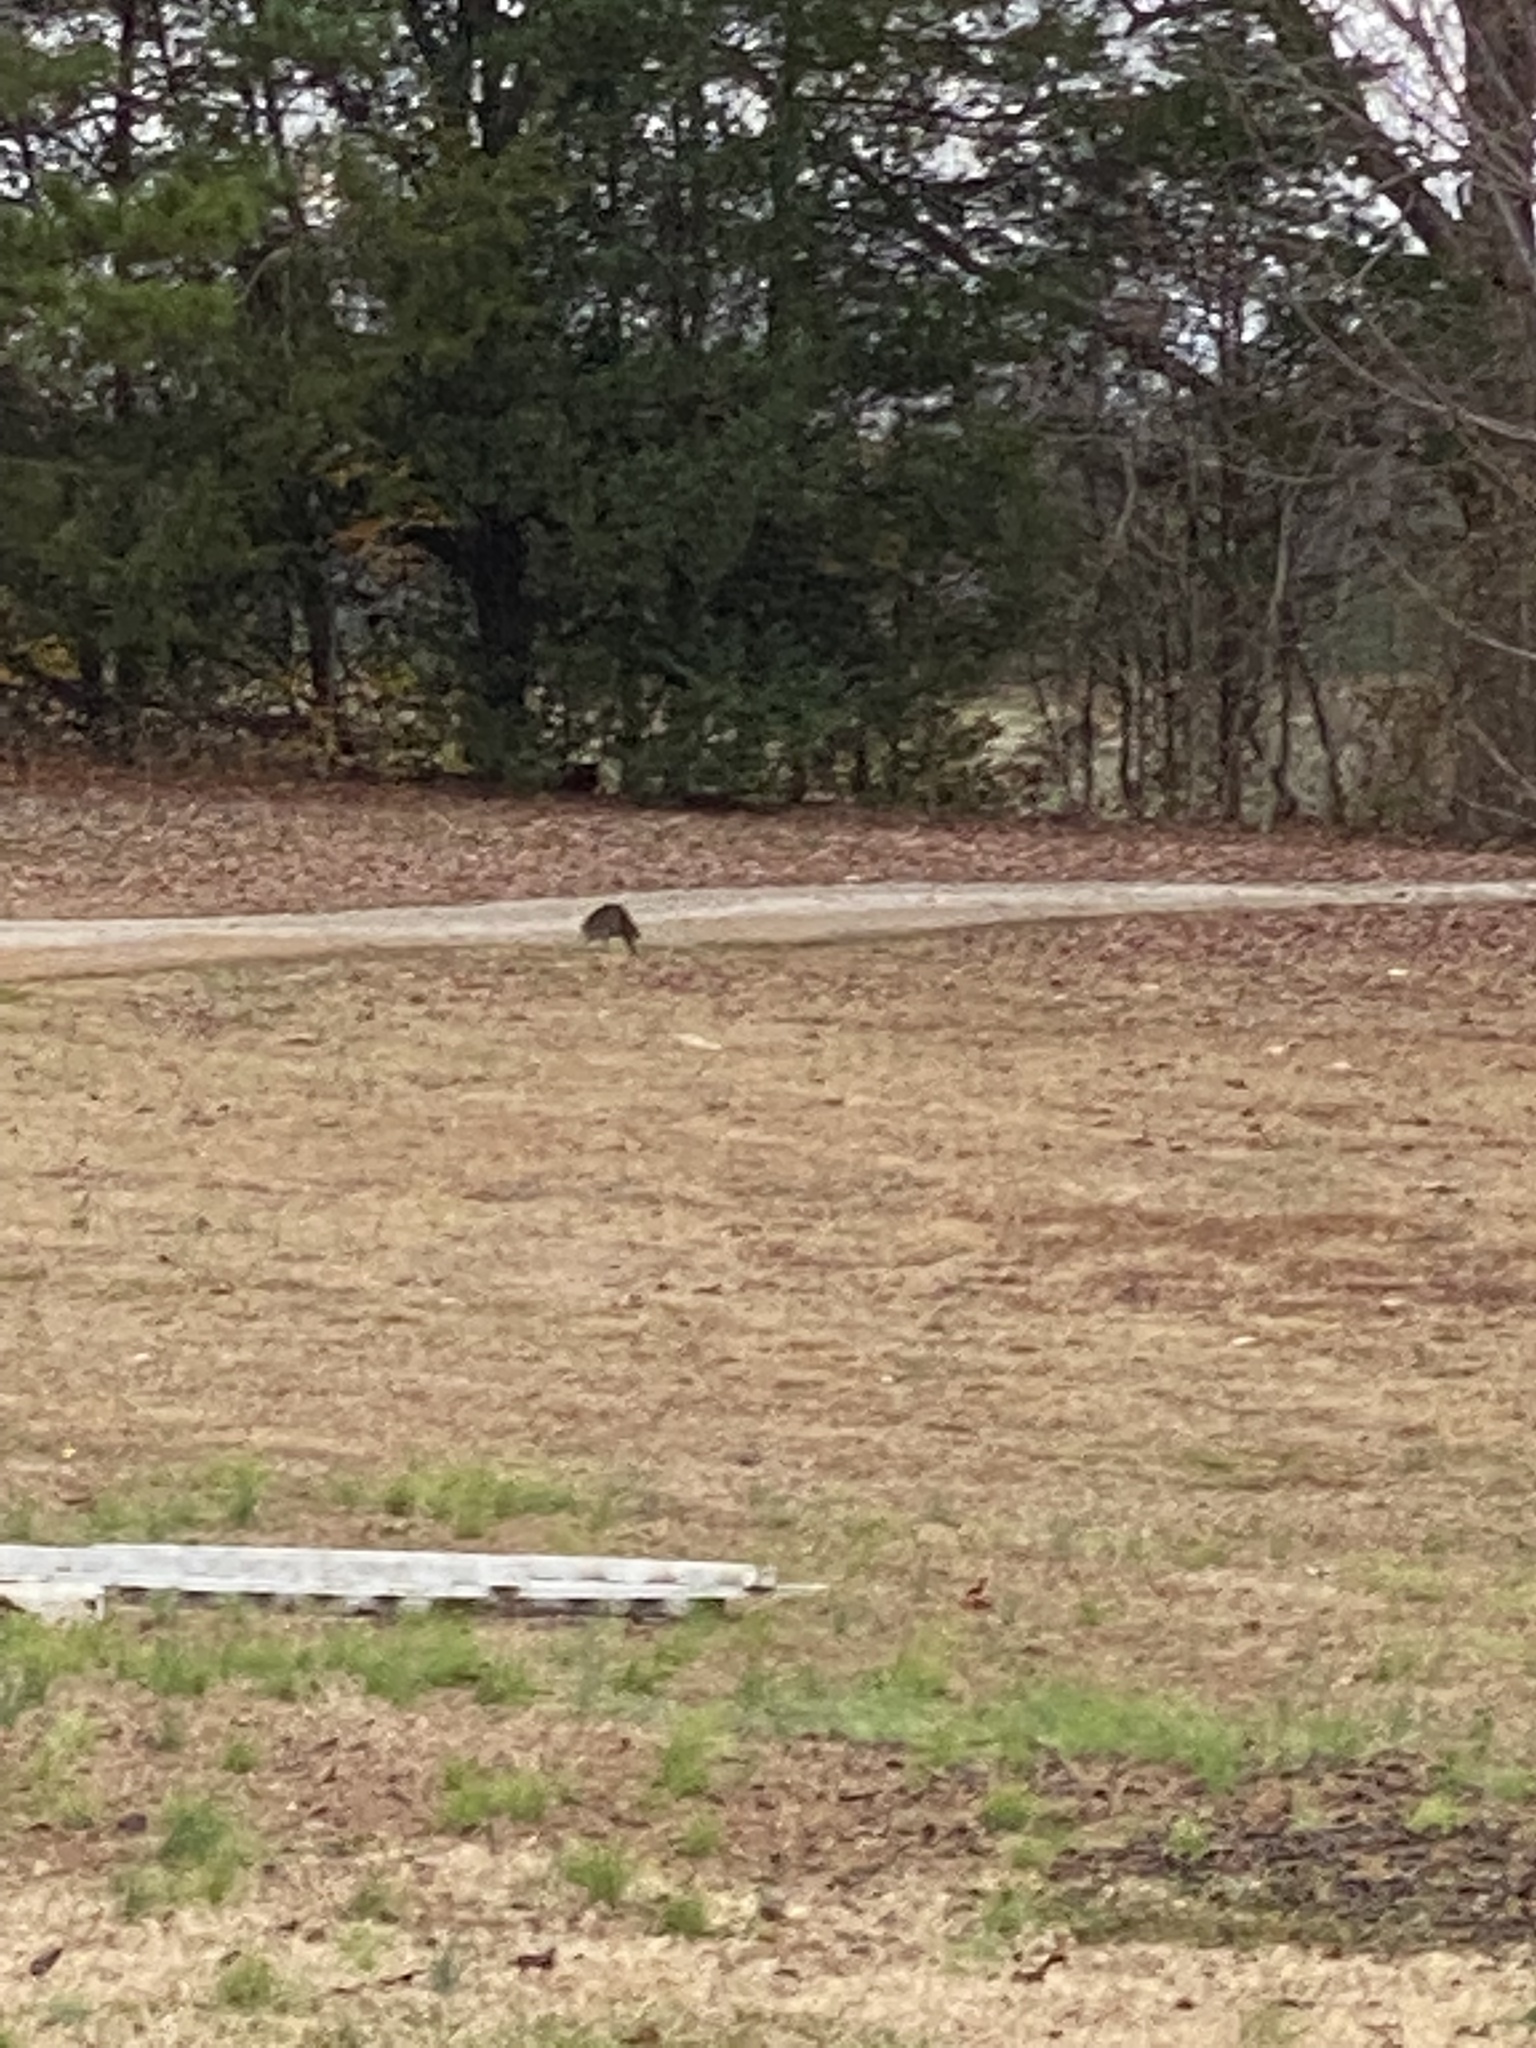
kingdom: Animalia
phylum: Chordata
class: Mammalia
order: Carnivora
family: Procyonidae
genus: Procyon
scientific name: Procyon lotor
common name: Raccoon
